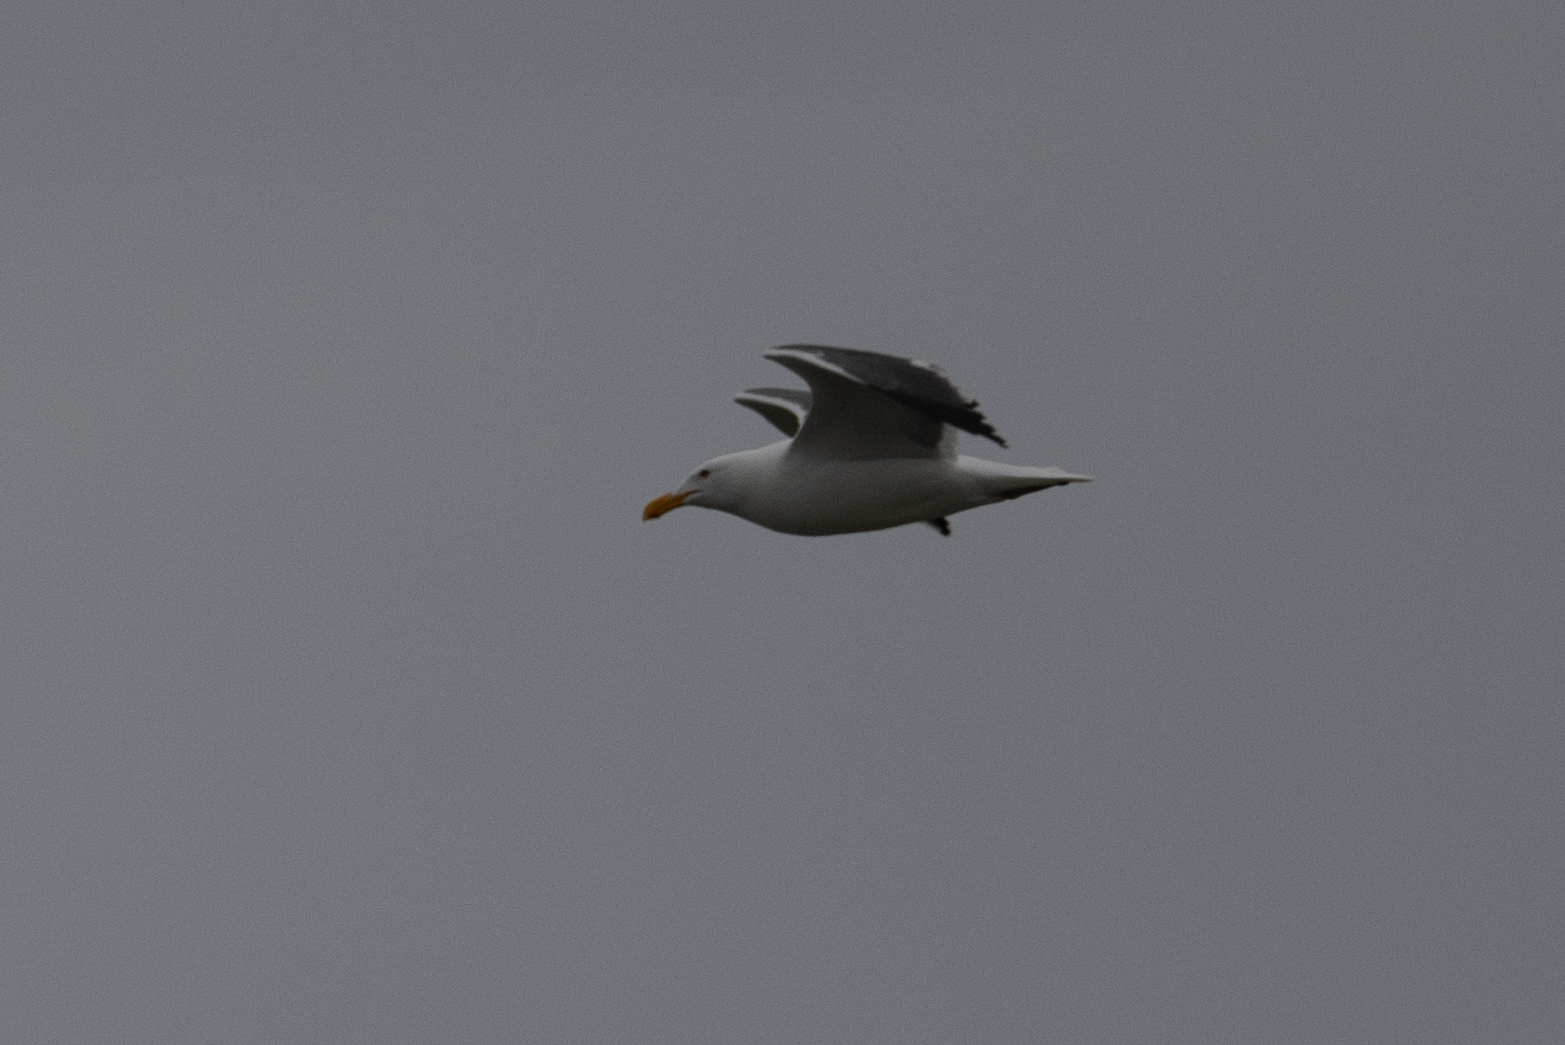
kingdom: Animalia
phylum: Chordata
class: Aves
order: Charadriiformes
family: Laridae
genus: Larus
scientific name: Larus occidentalis
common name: Western gull
